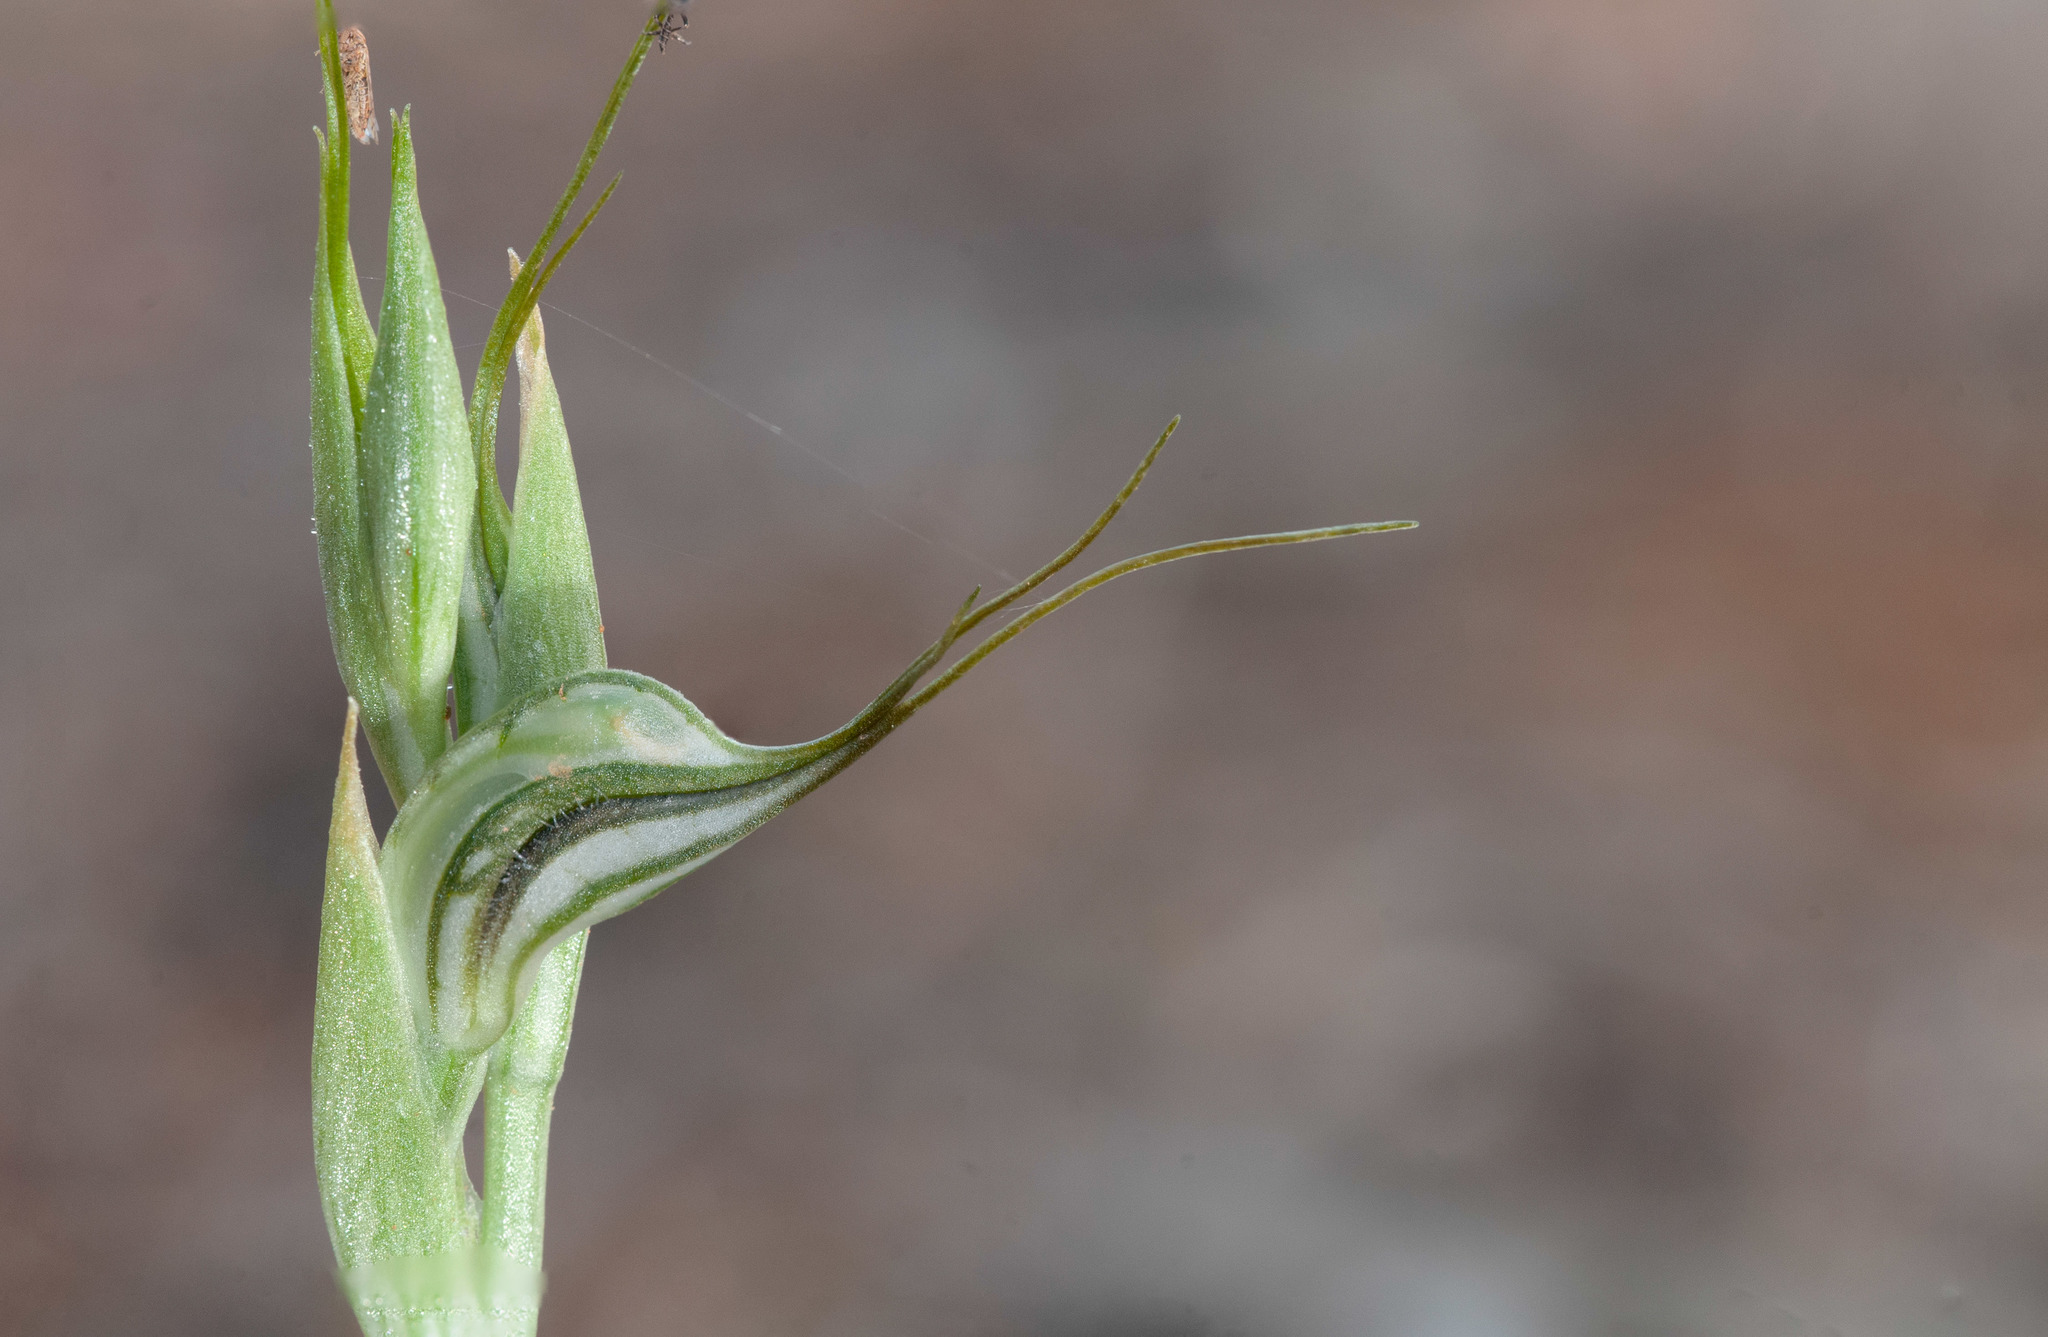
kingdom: Plantae
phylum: Tracheophyta
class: Liliopsida
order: Asparagales
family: Orchidaceae
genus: Pterostylis
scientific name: Pterostylis biseta
